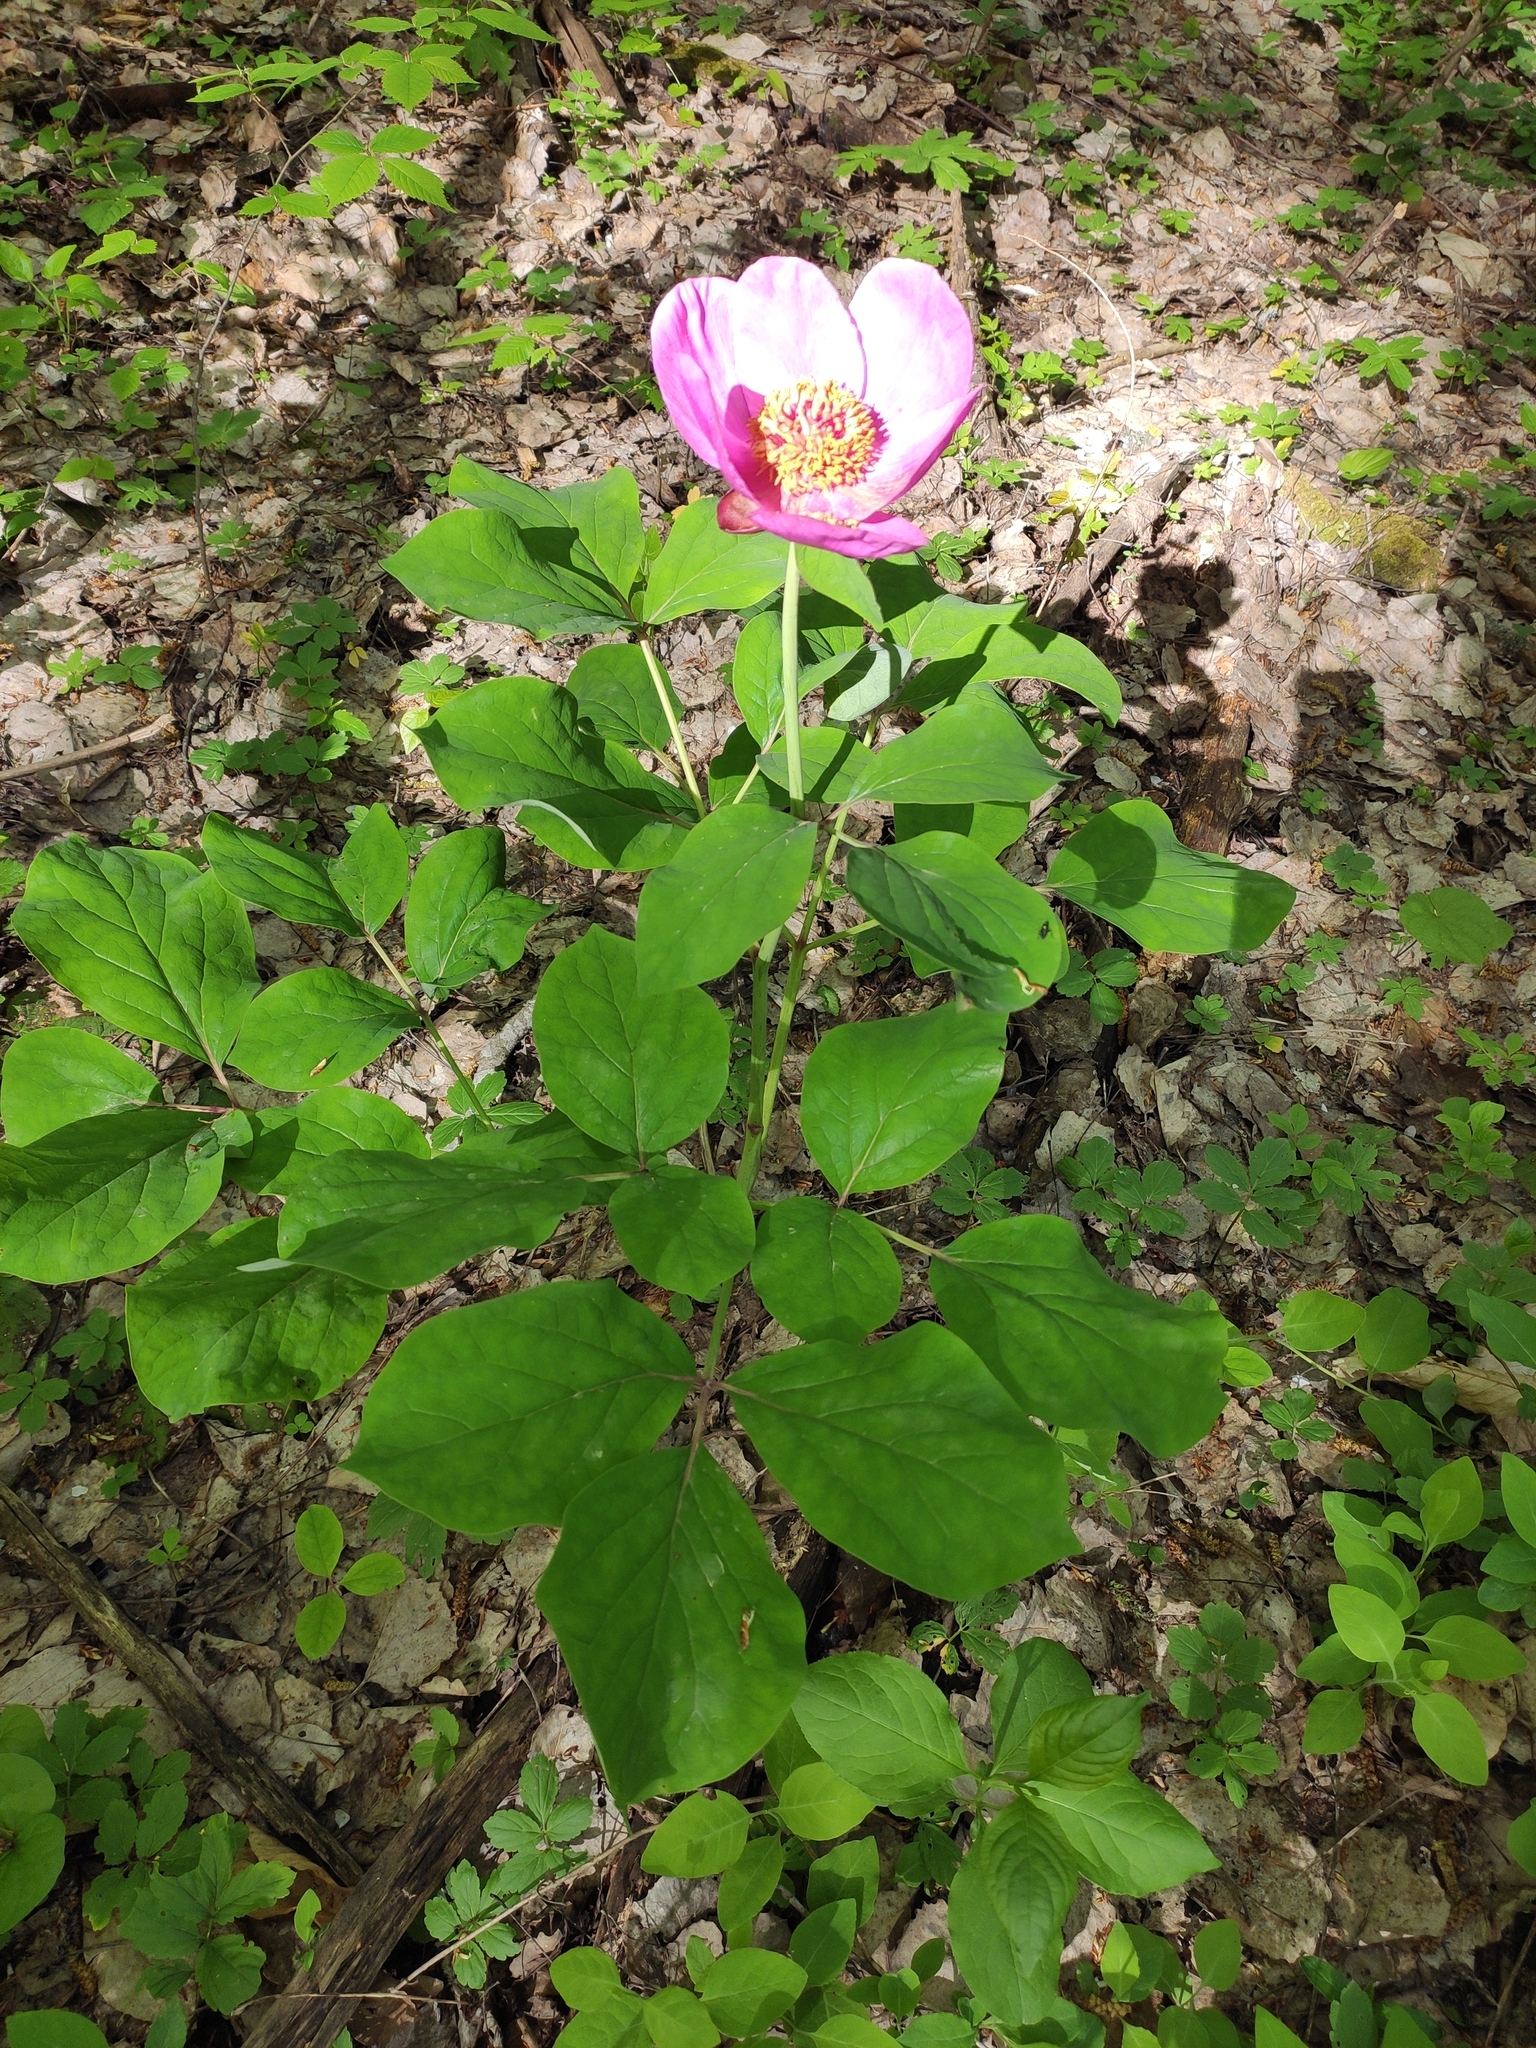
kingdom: Plantae
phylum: Tracheophyta
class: Magnoliopsida
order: Saxifragales
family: Paeoniaceae
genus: Paeonia
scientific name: Paeonia caucasica
